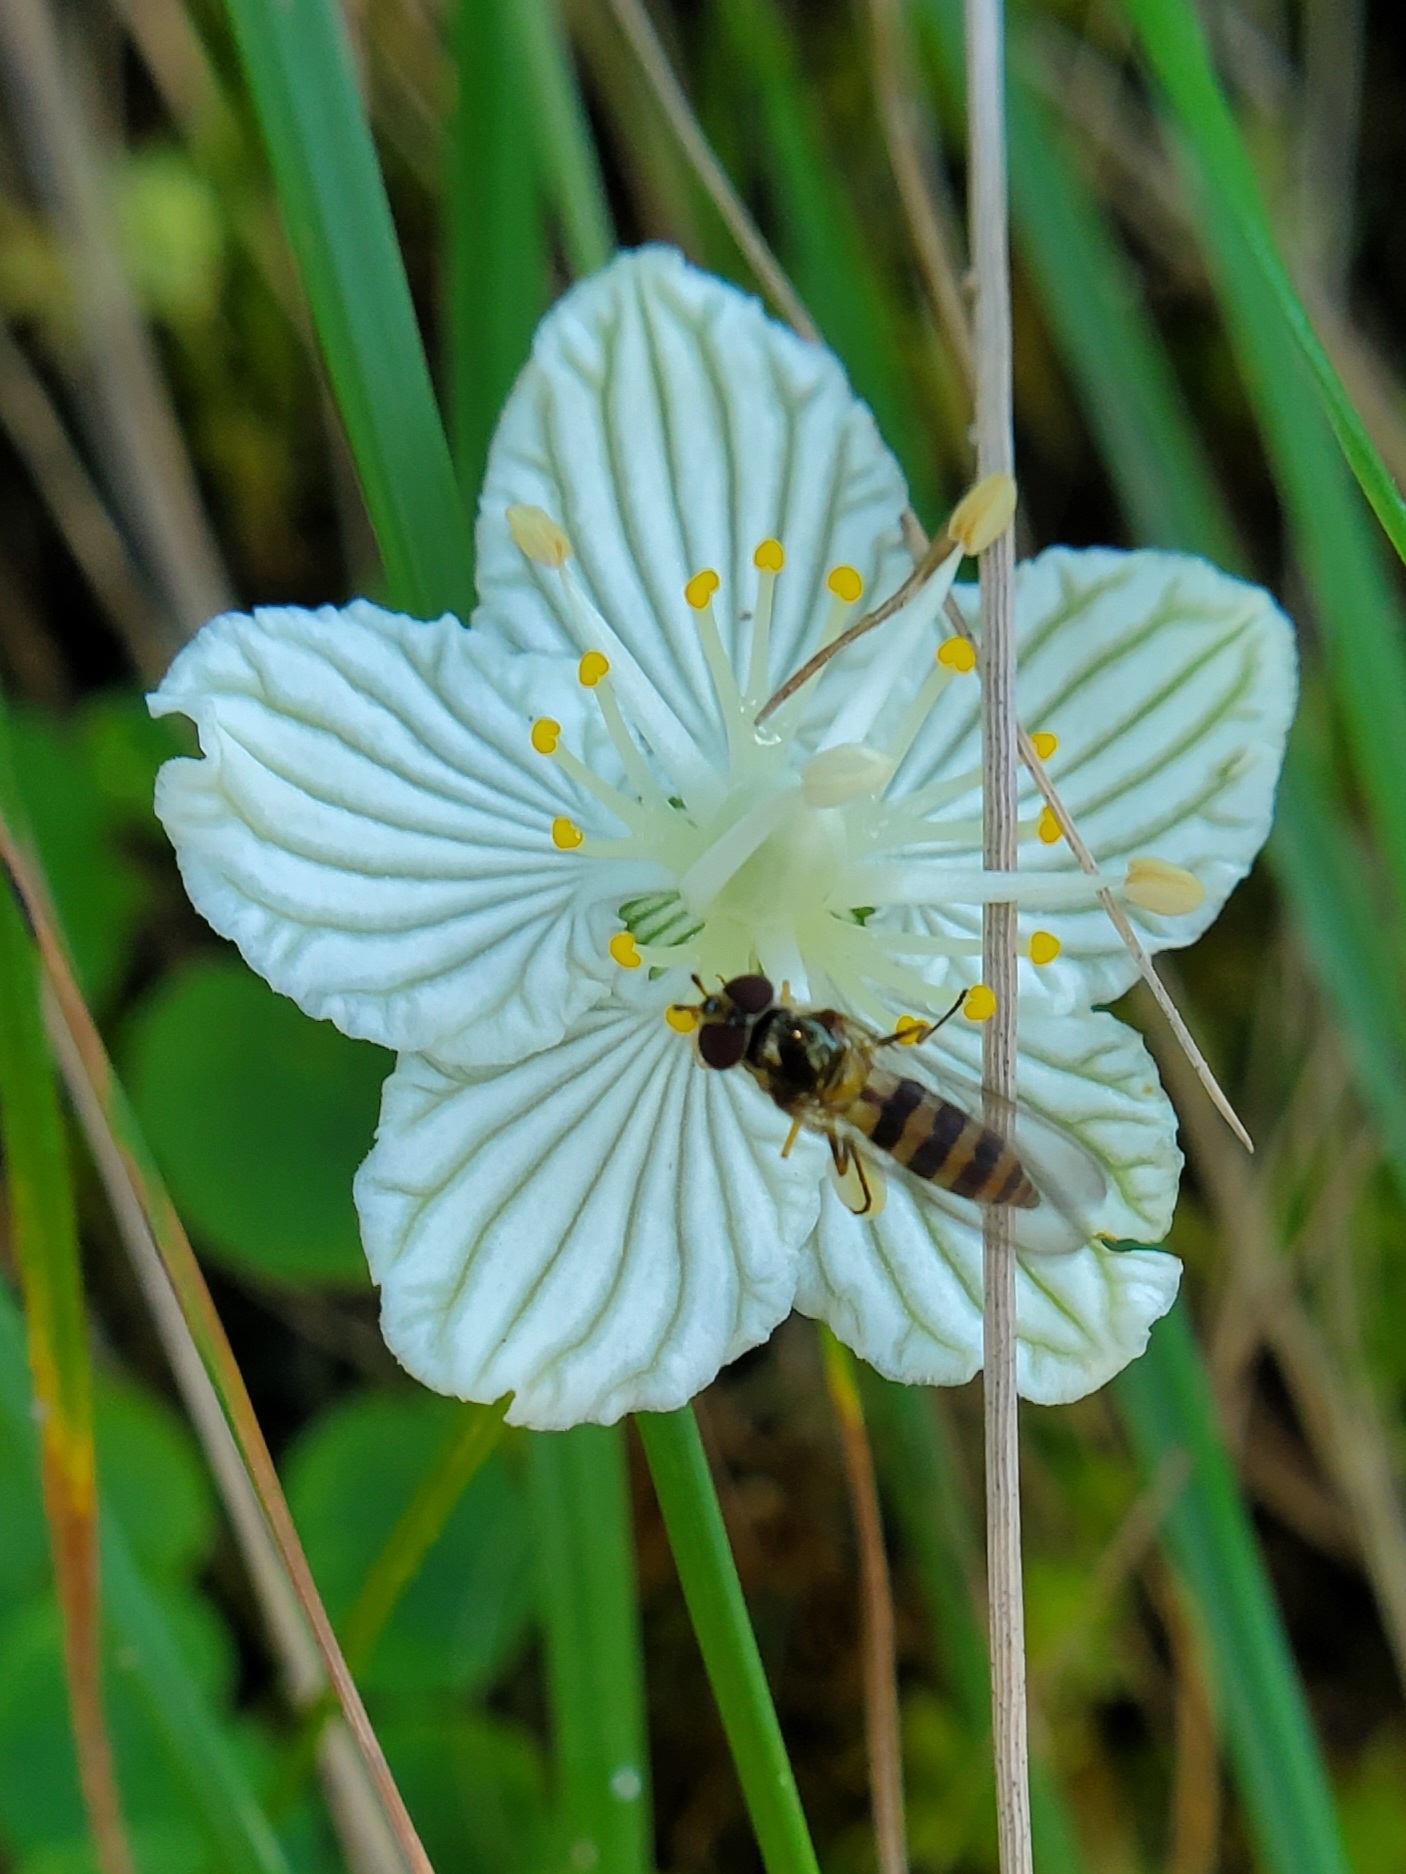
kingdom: Animalia
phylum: Arthropoda
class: Insecta
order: Diptera
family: Syrphidae
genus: Meliscaeva
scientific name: Meliscaeva cinctella
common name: American thintail fly
